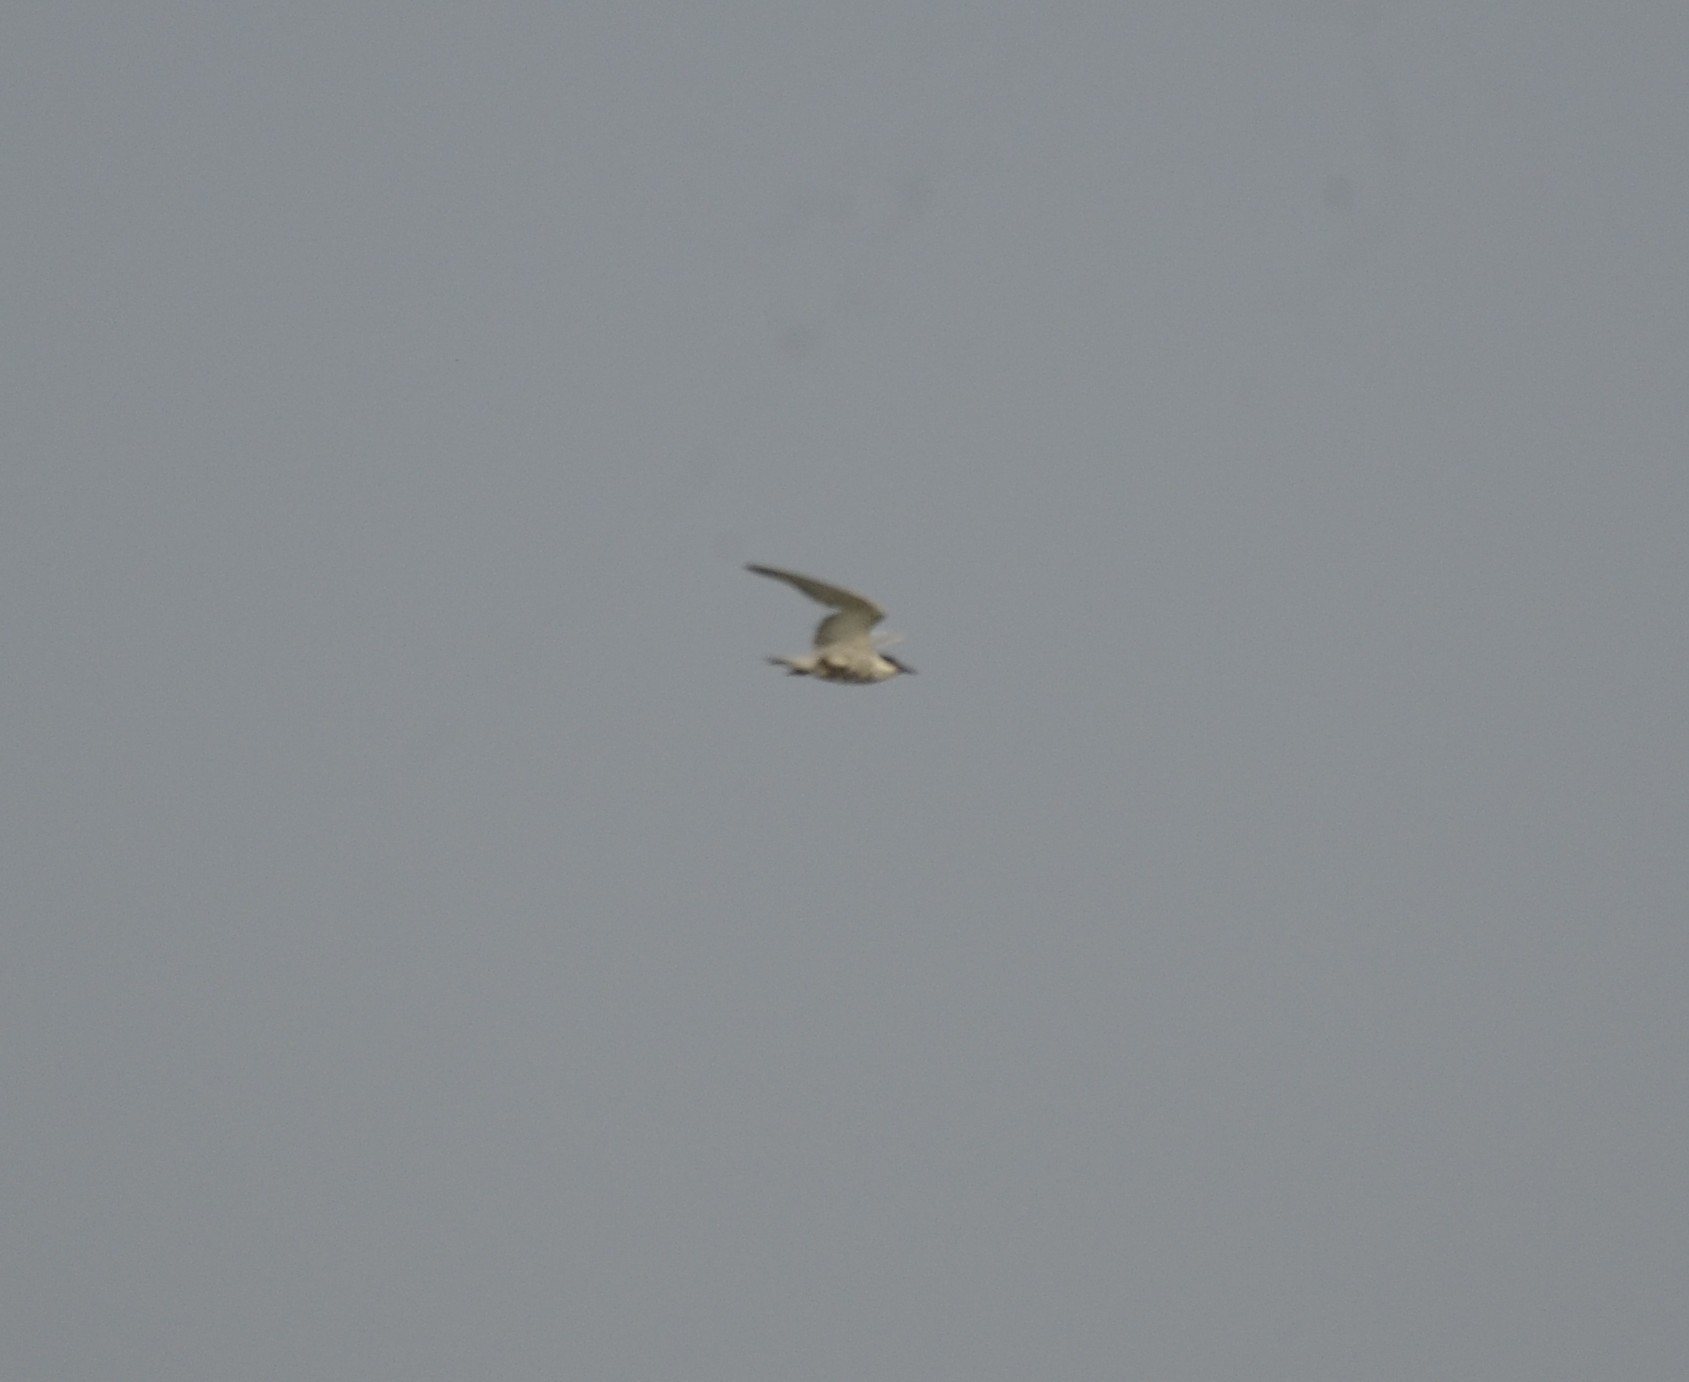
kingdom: Animalia
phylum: Chordata
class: Aves
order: Charadriiformes
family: Laridae
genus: Chlidonias
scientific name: Chlidonias hybrida
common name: Whiskered tern
